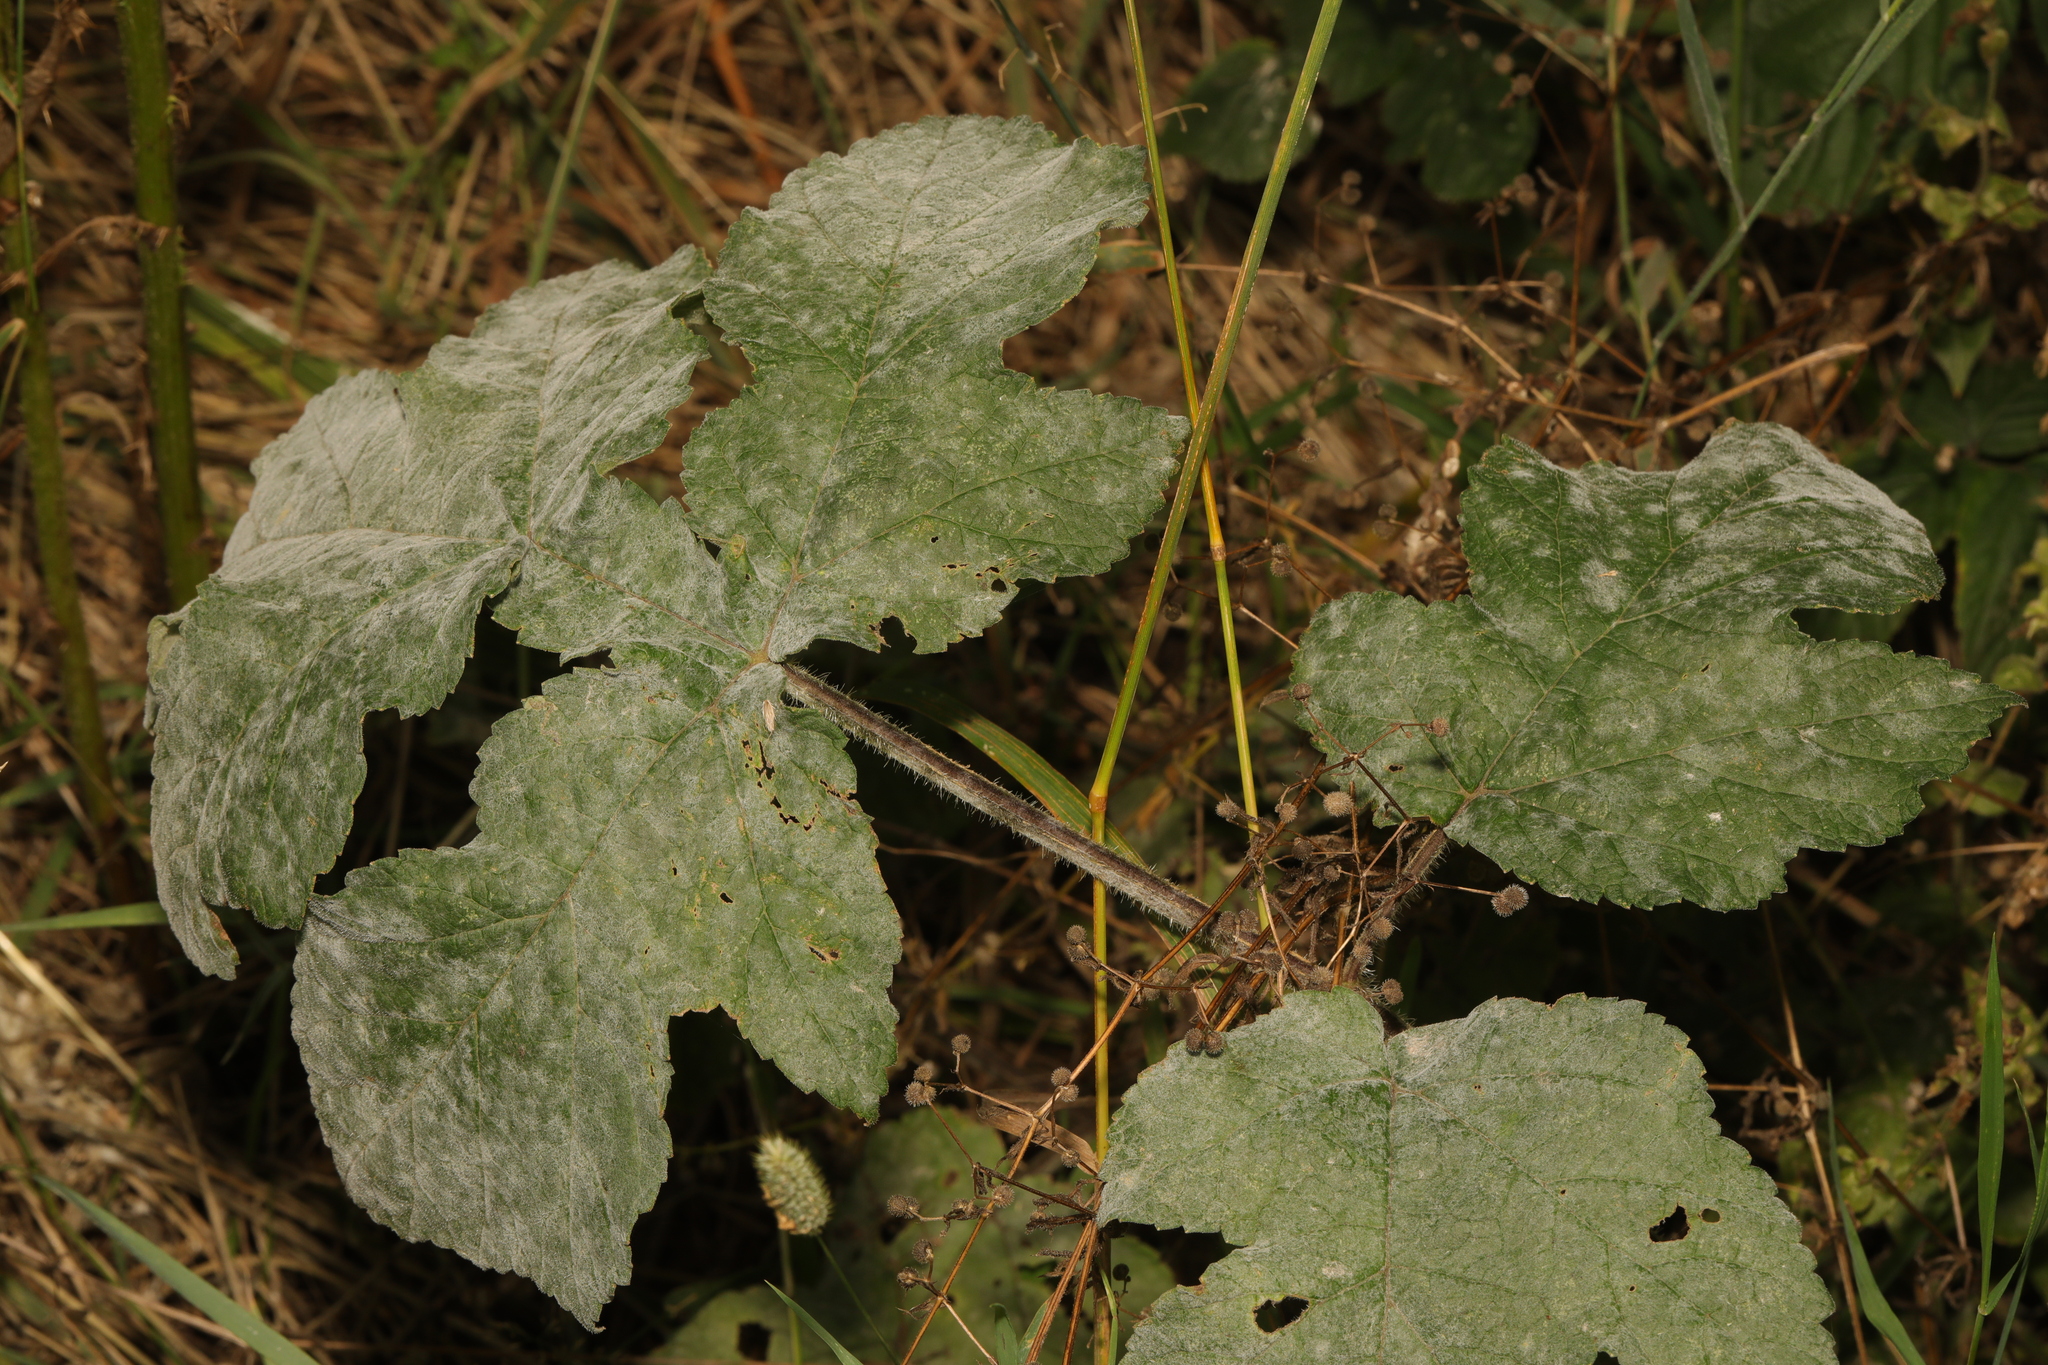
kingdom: Plantae
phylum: Tracheophyta
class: Magnoliopsida
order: Apiales
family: Apiaceae
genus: Heracleum
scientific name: Heracleum sphondylium
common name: Hogweed
